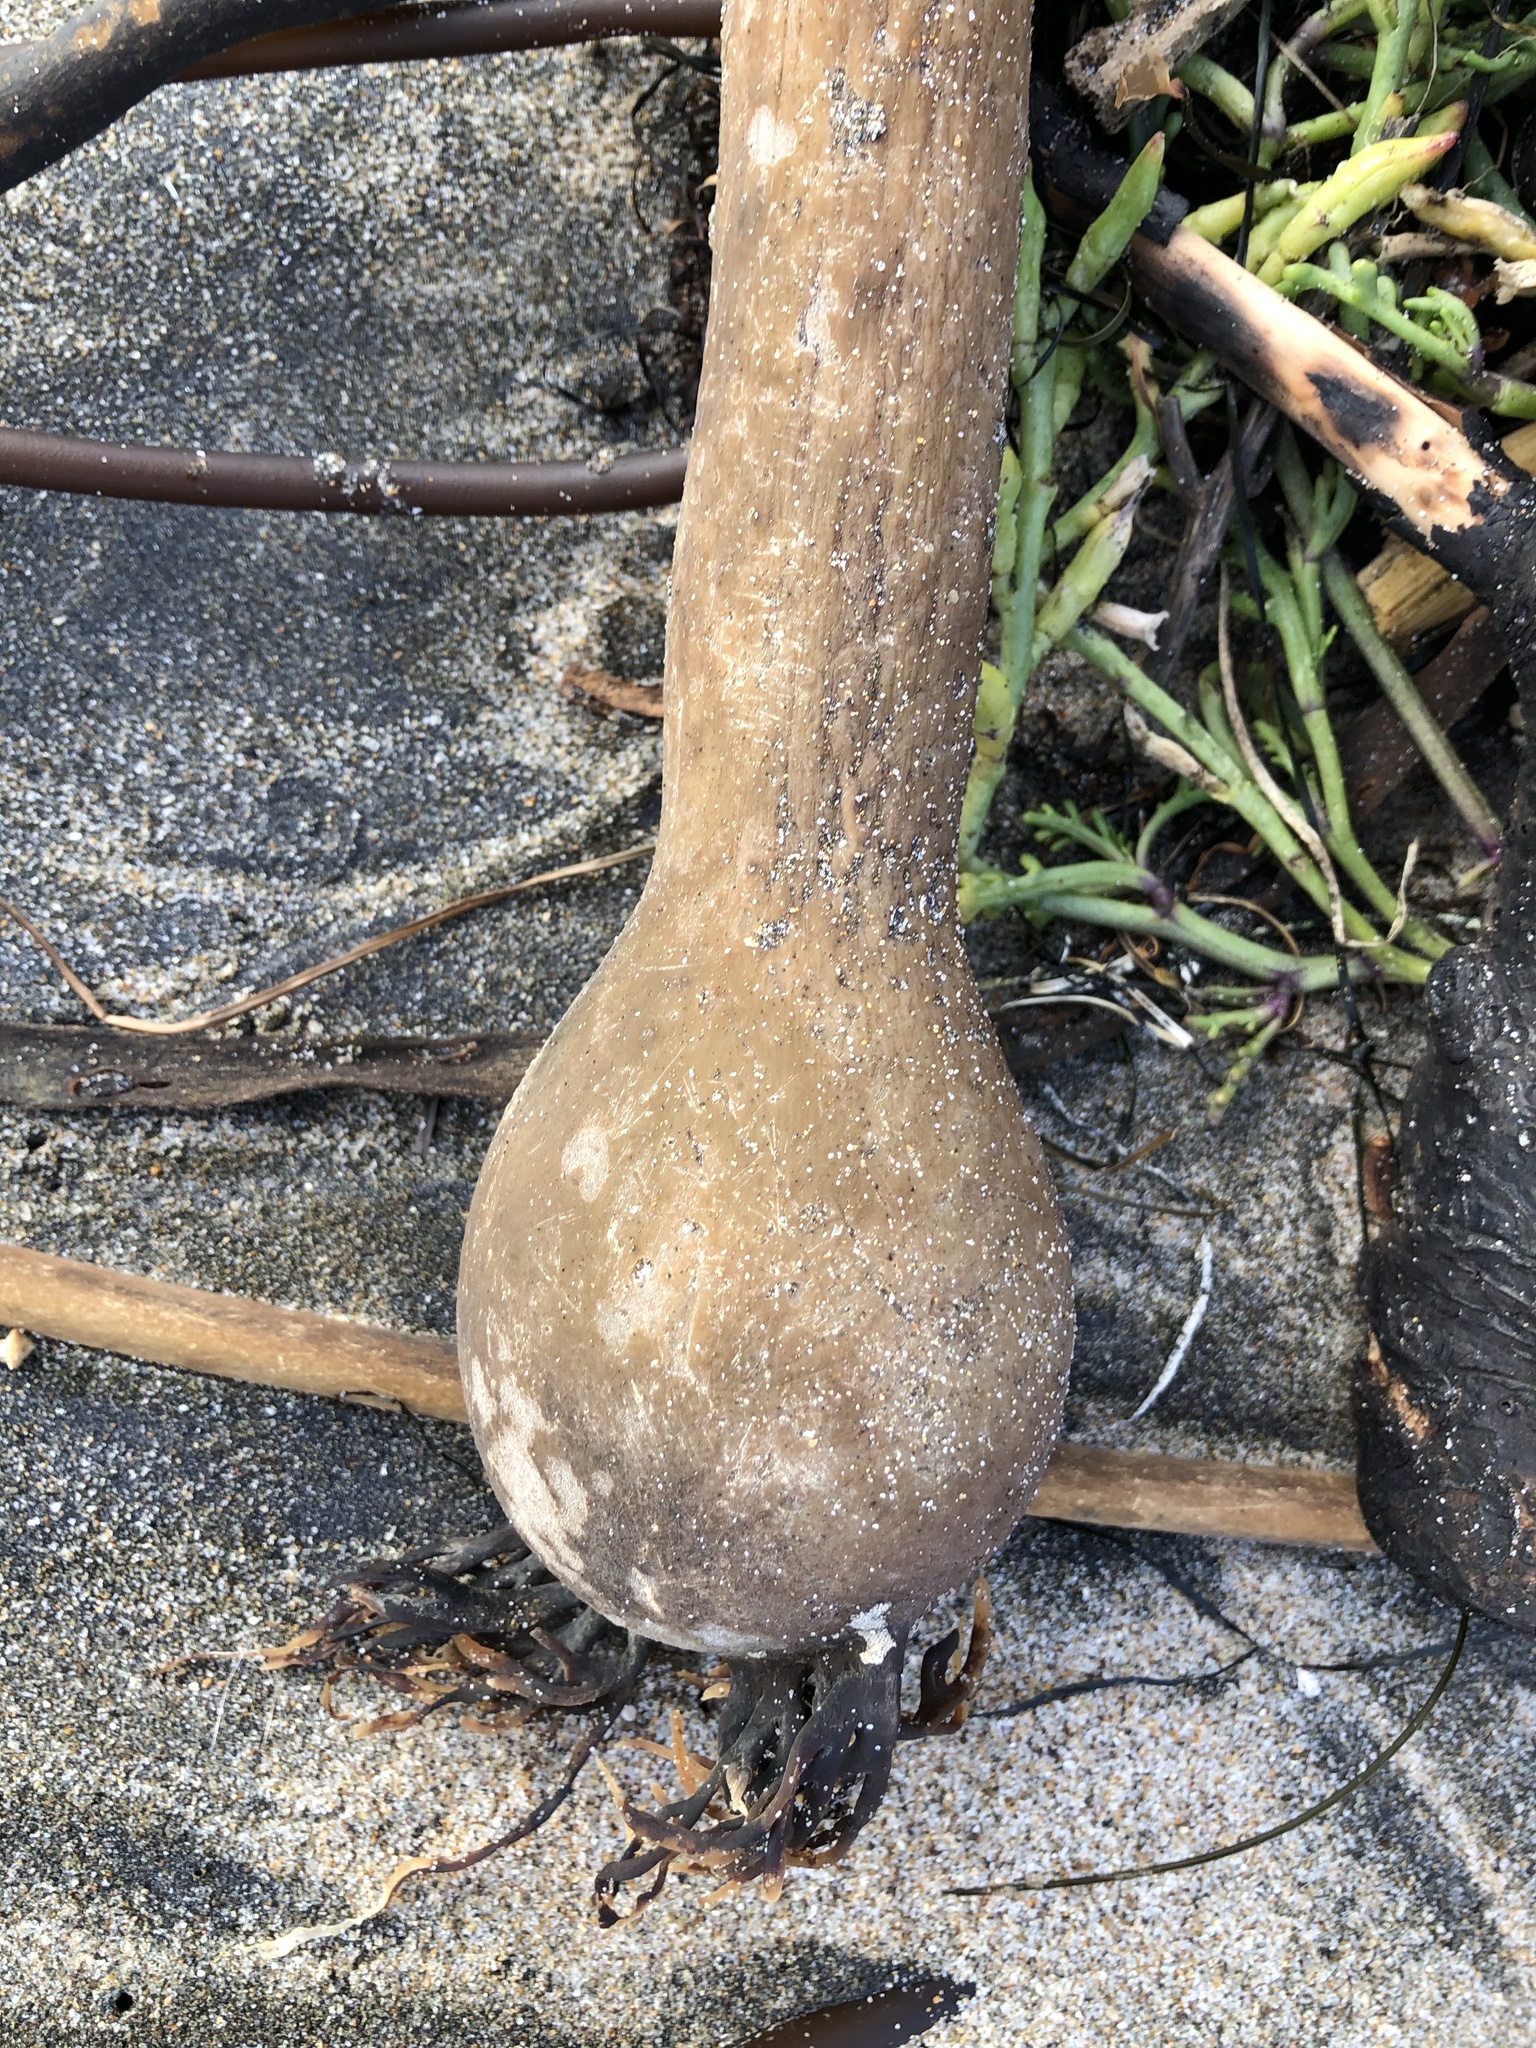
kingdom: Chromista
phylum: Ochrophyta
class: Phaeophyceae
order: Laminariales
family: Laminariaceae
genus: Nereocystis
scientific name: Nereocystis luetkeana
